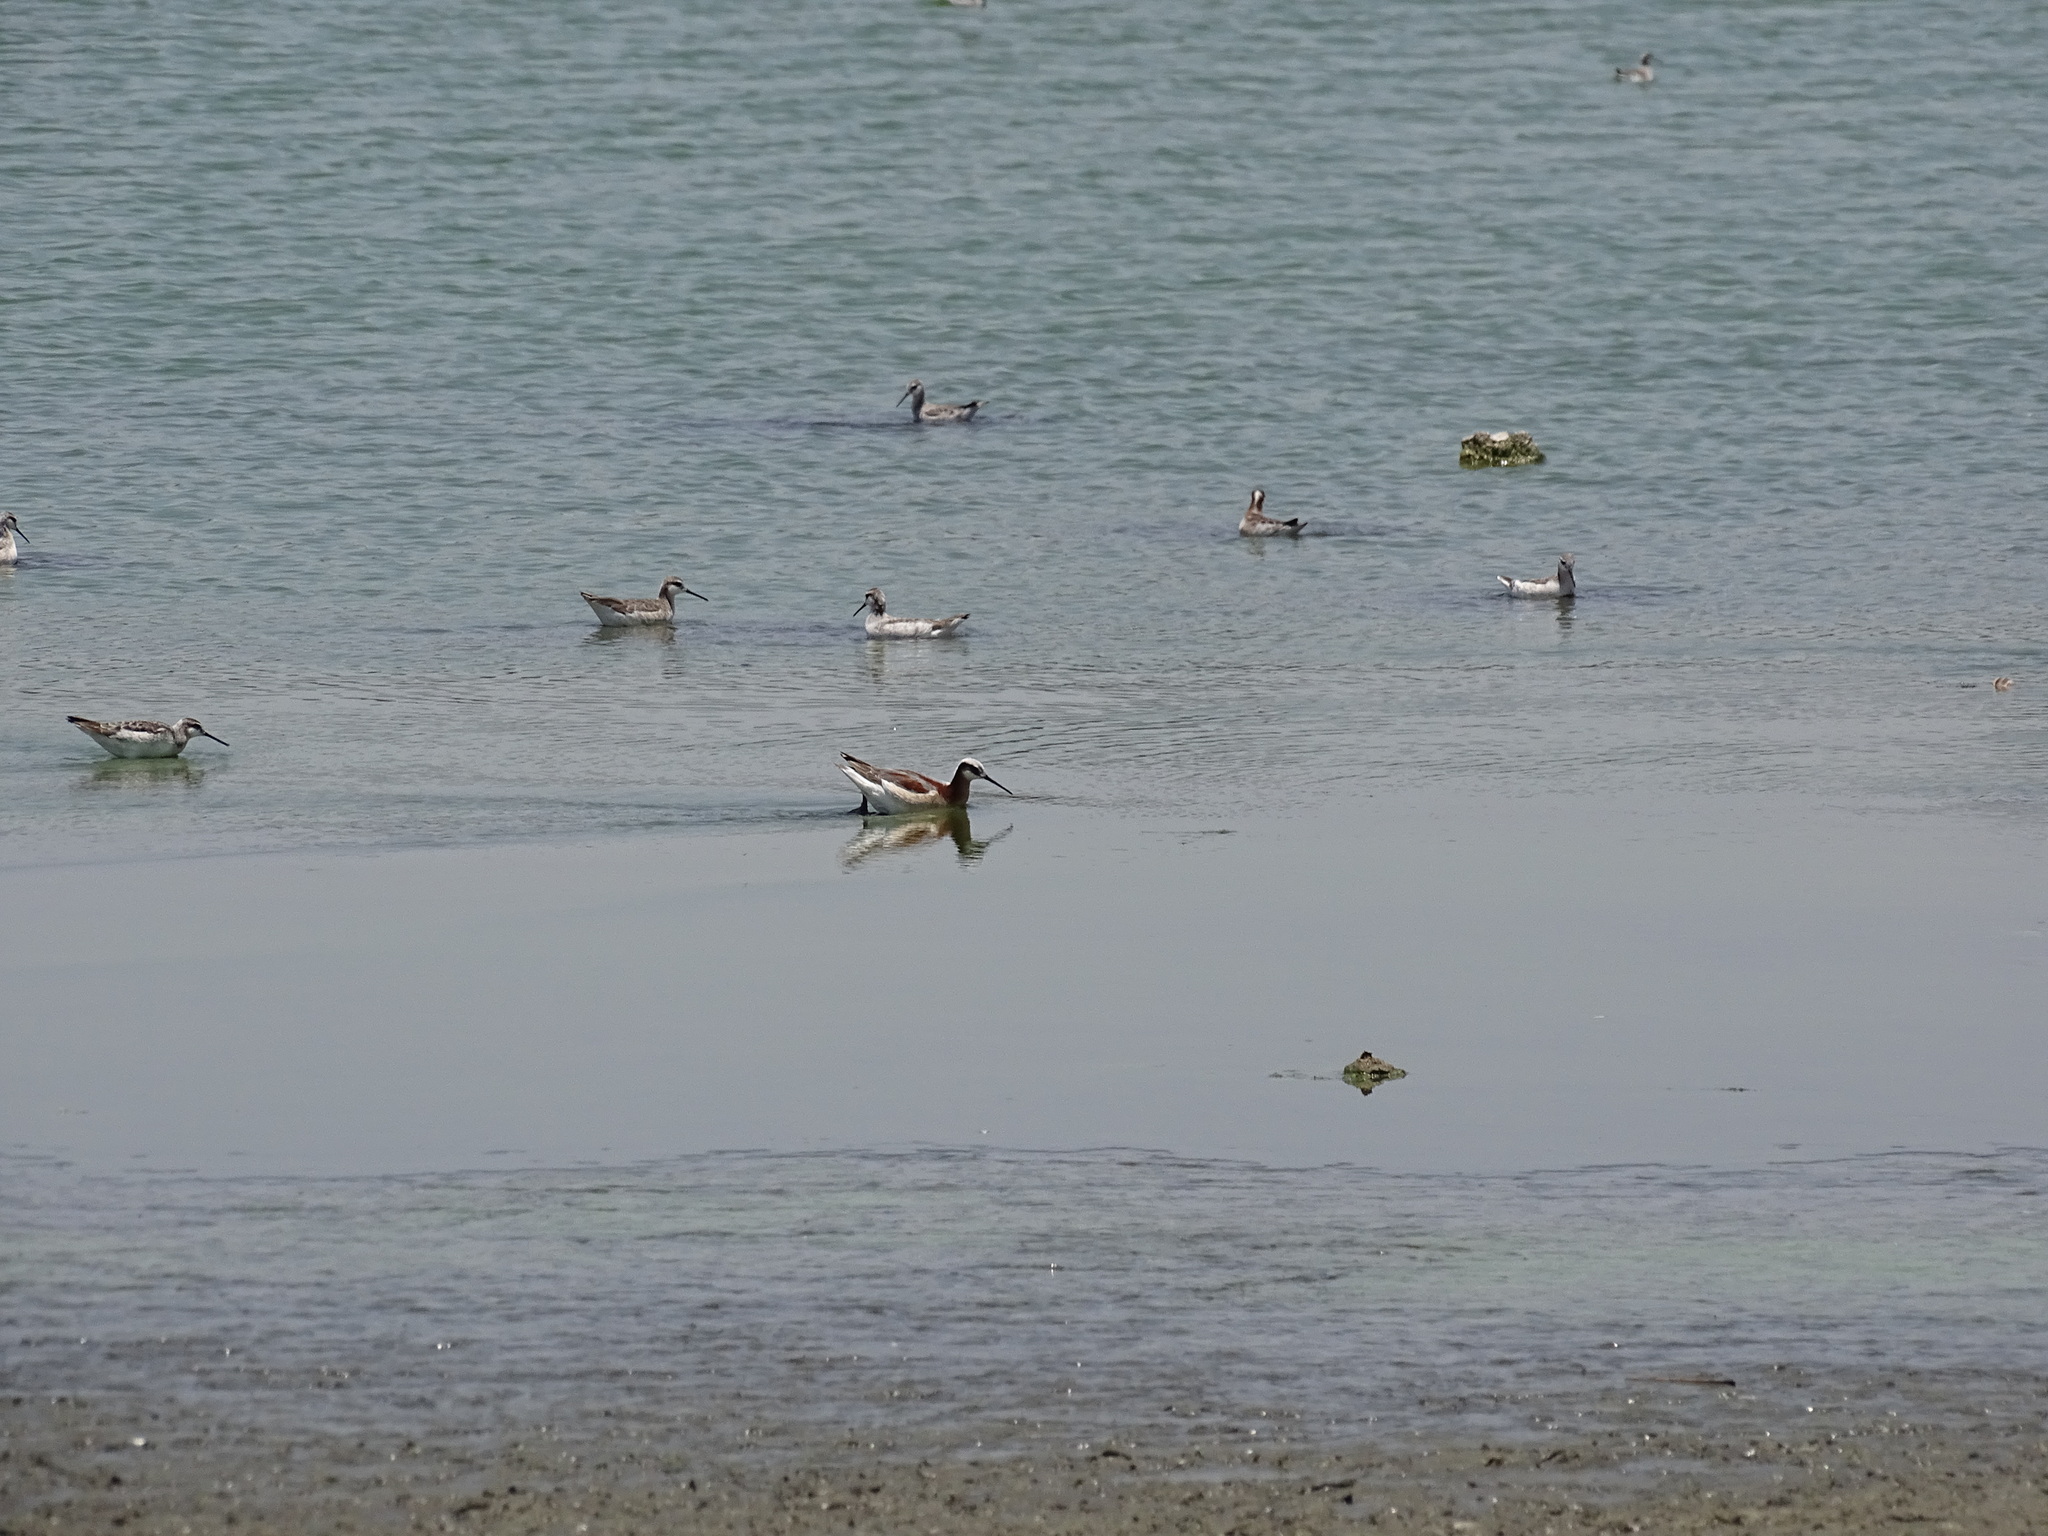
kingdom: Animalia
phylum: Chordata
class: Aves
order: Charadriiformes
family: Scolopacidae
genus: Phalaropus
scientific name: Phalaropus tricolor
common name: Wilson's phalarope
